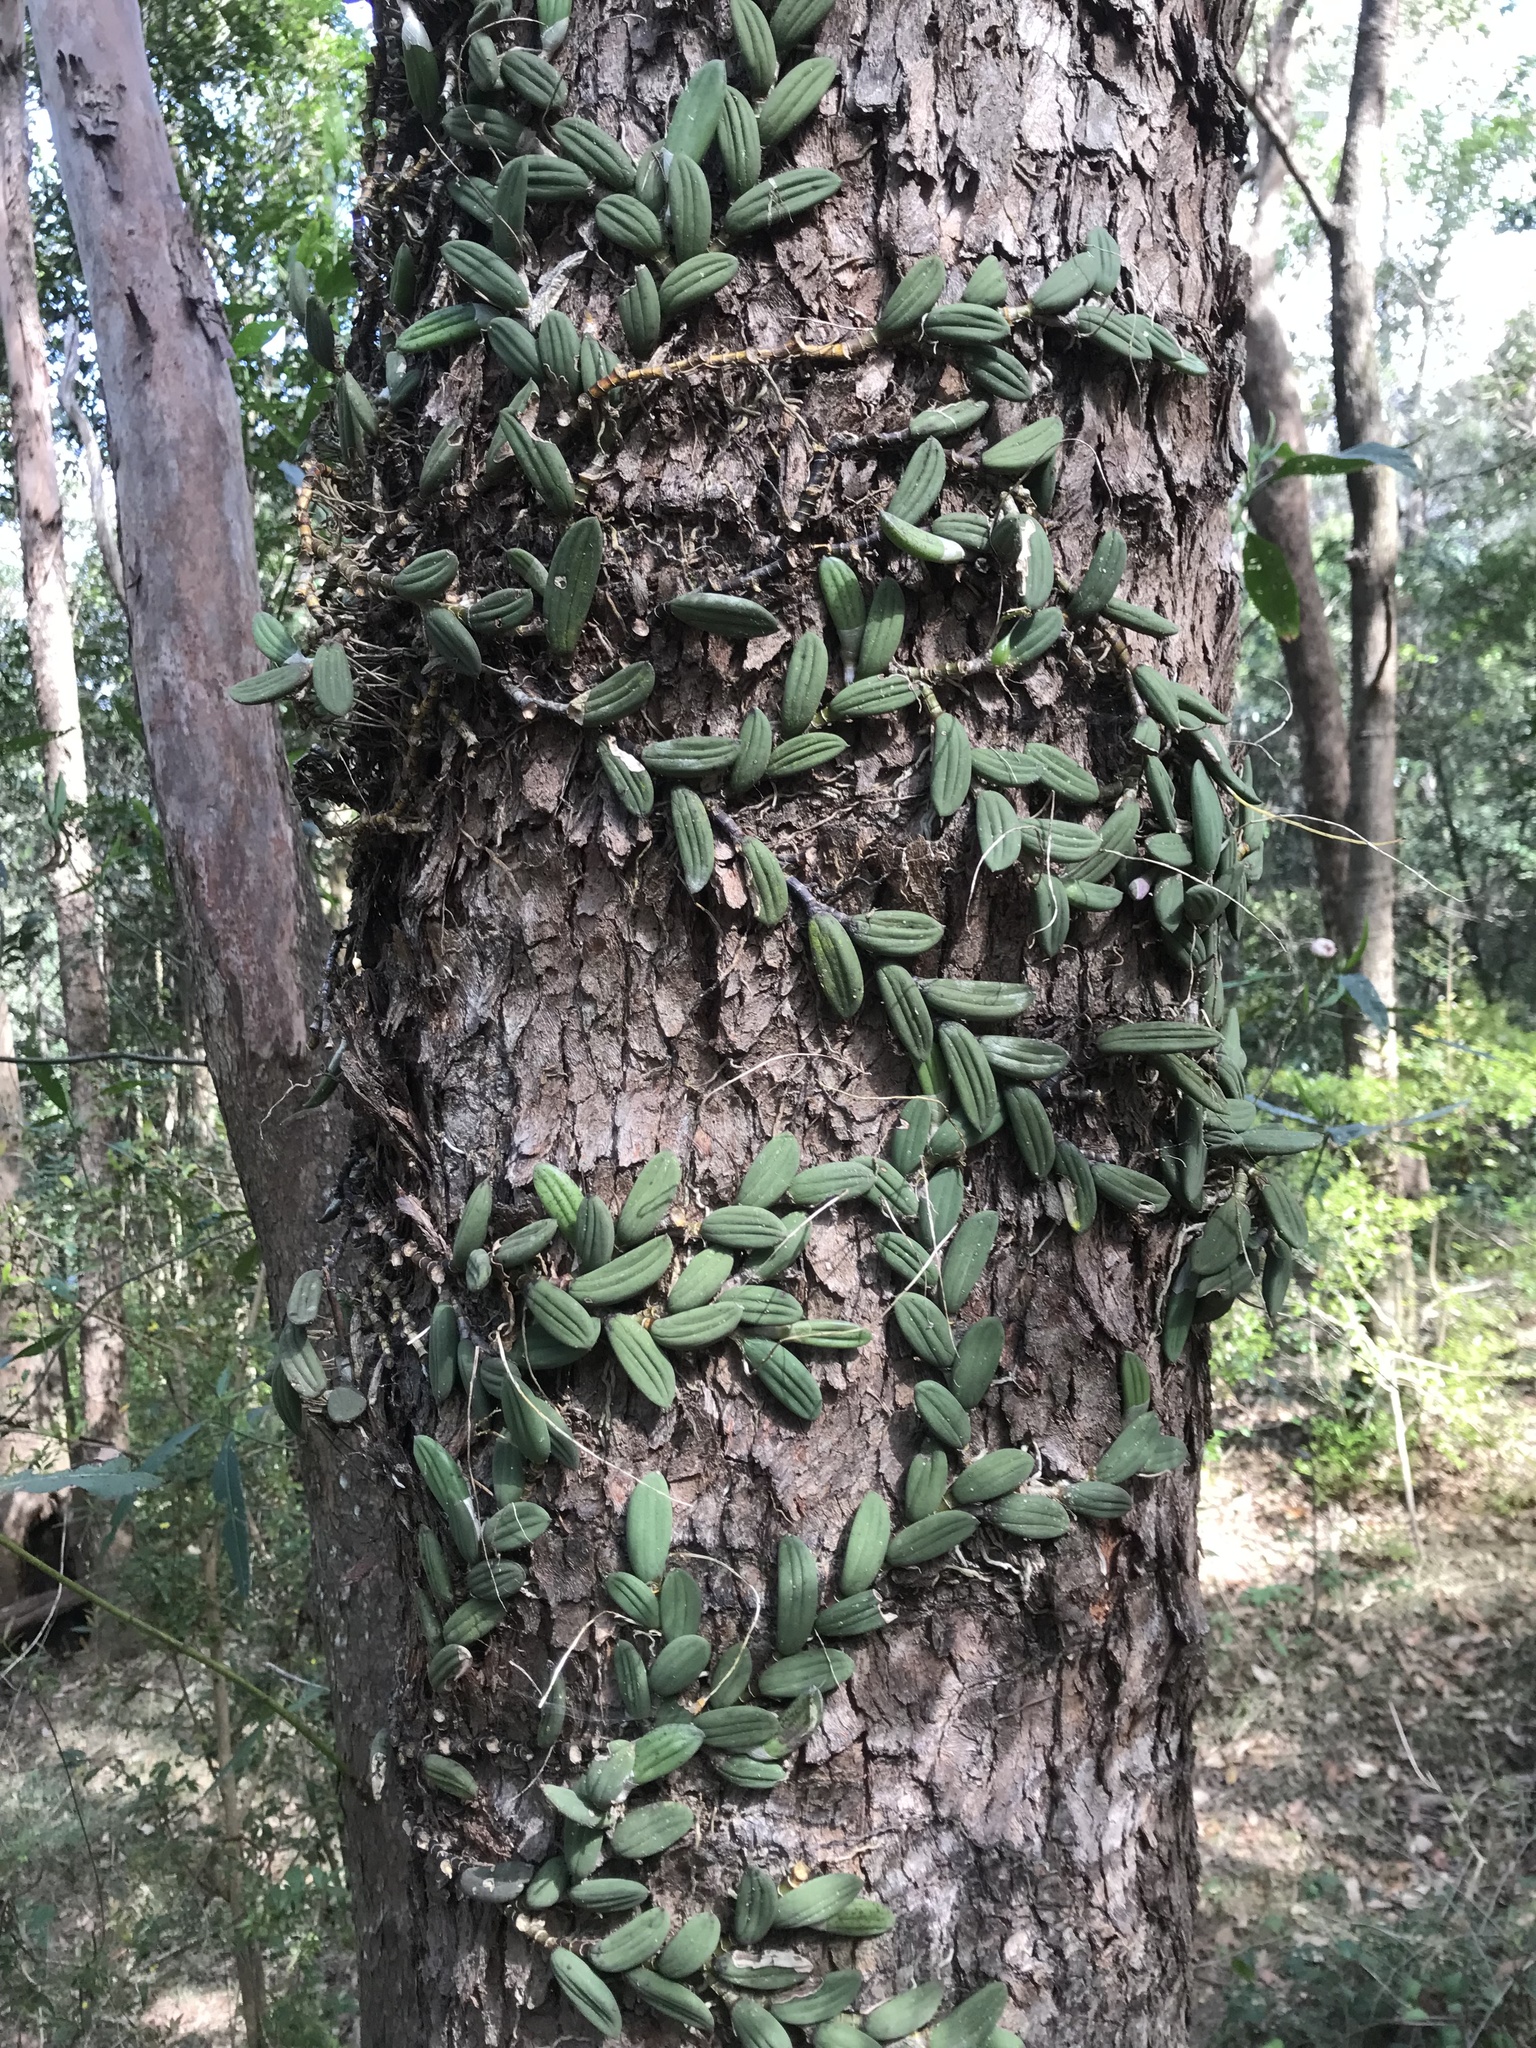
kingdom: Plantae
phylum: Tracheophyta
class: Liliopsida
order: Asparagales
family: Orchidaceae
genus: Dendrobium
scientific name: Dendrobium linguiforme
